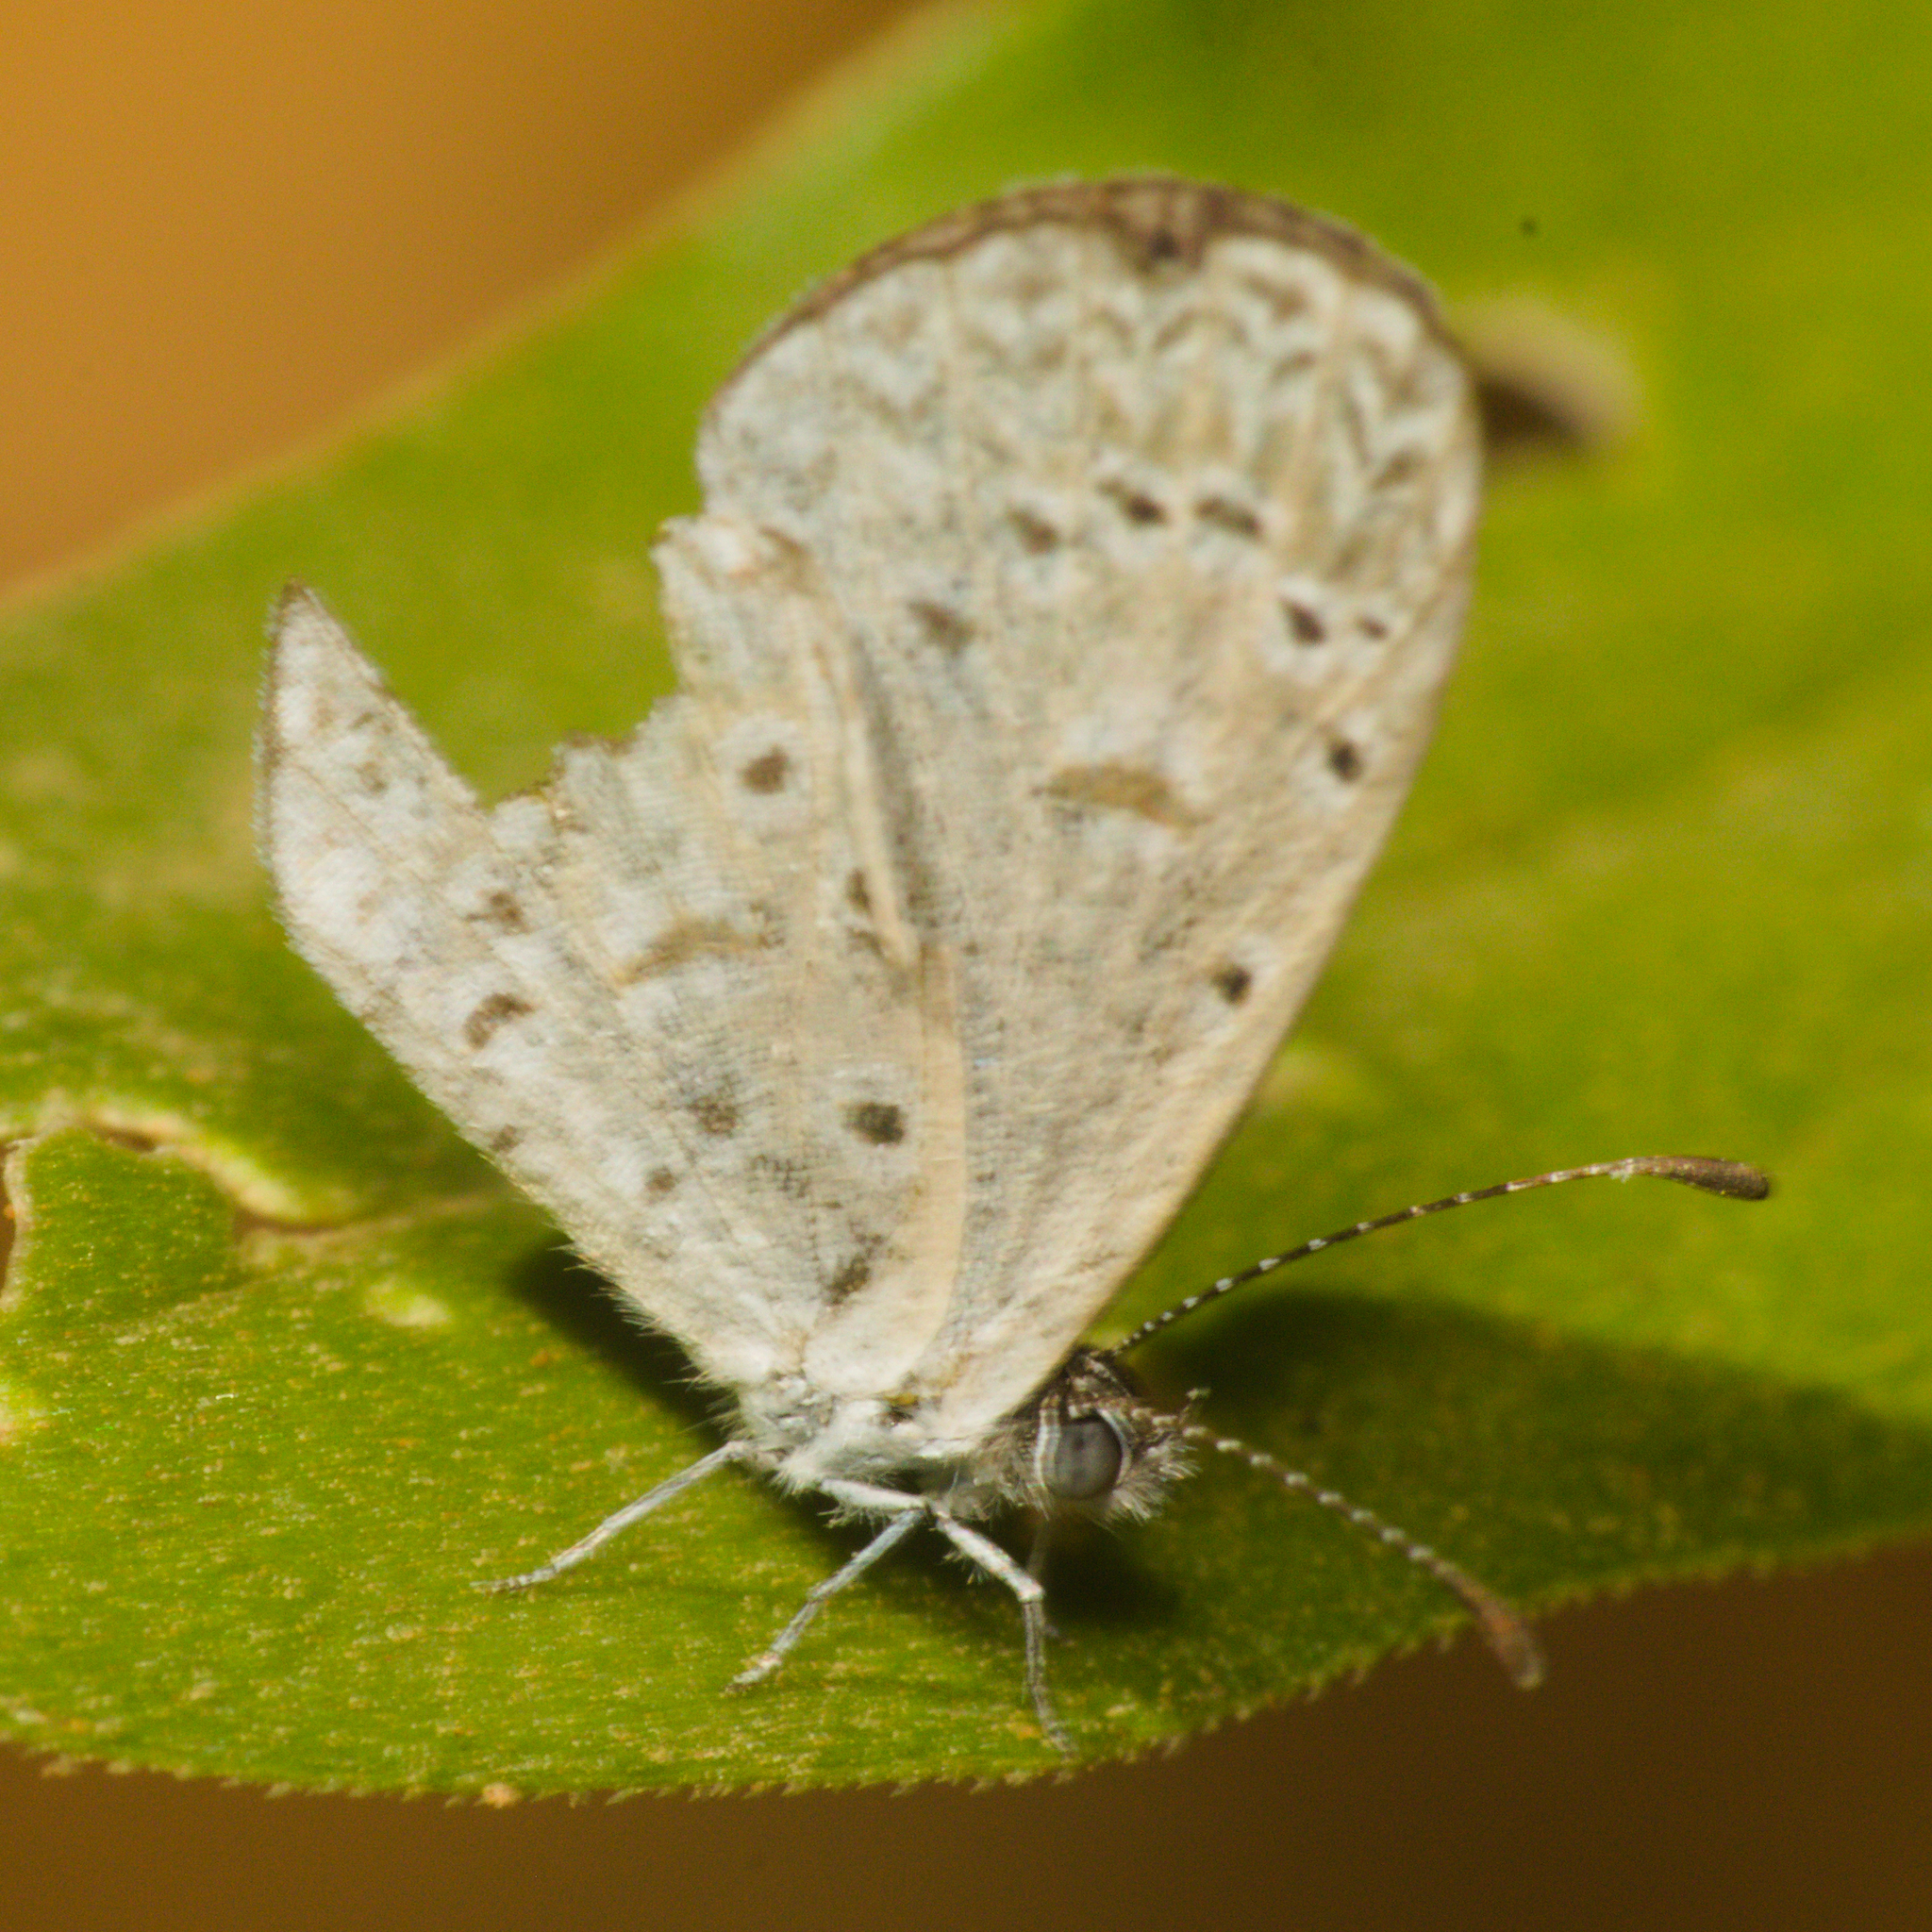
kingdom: Animalia
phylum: Arthropoda
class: Insecta
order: Lepidoptera
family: Lycaenidae
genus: Lycaena
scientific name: Lycaena cyna
